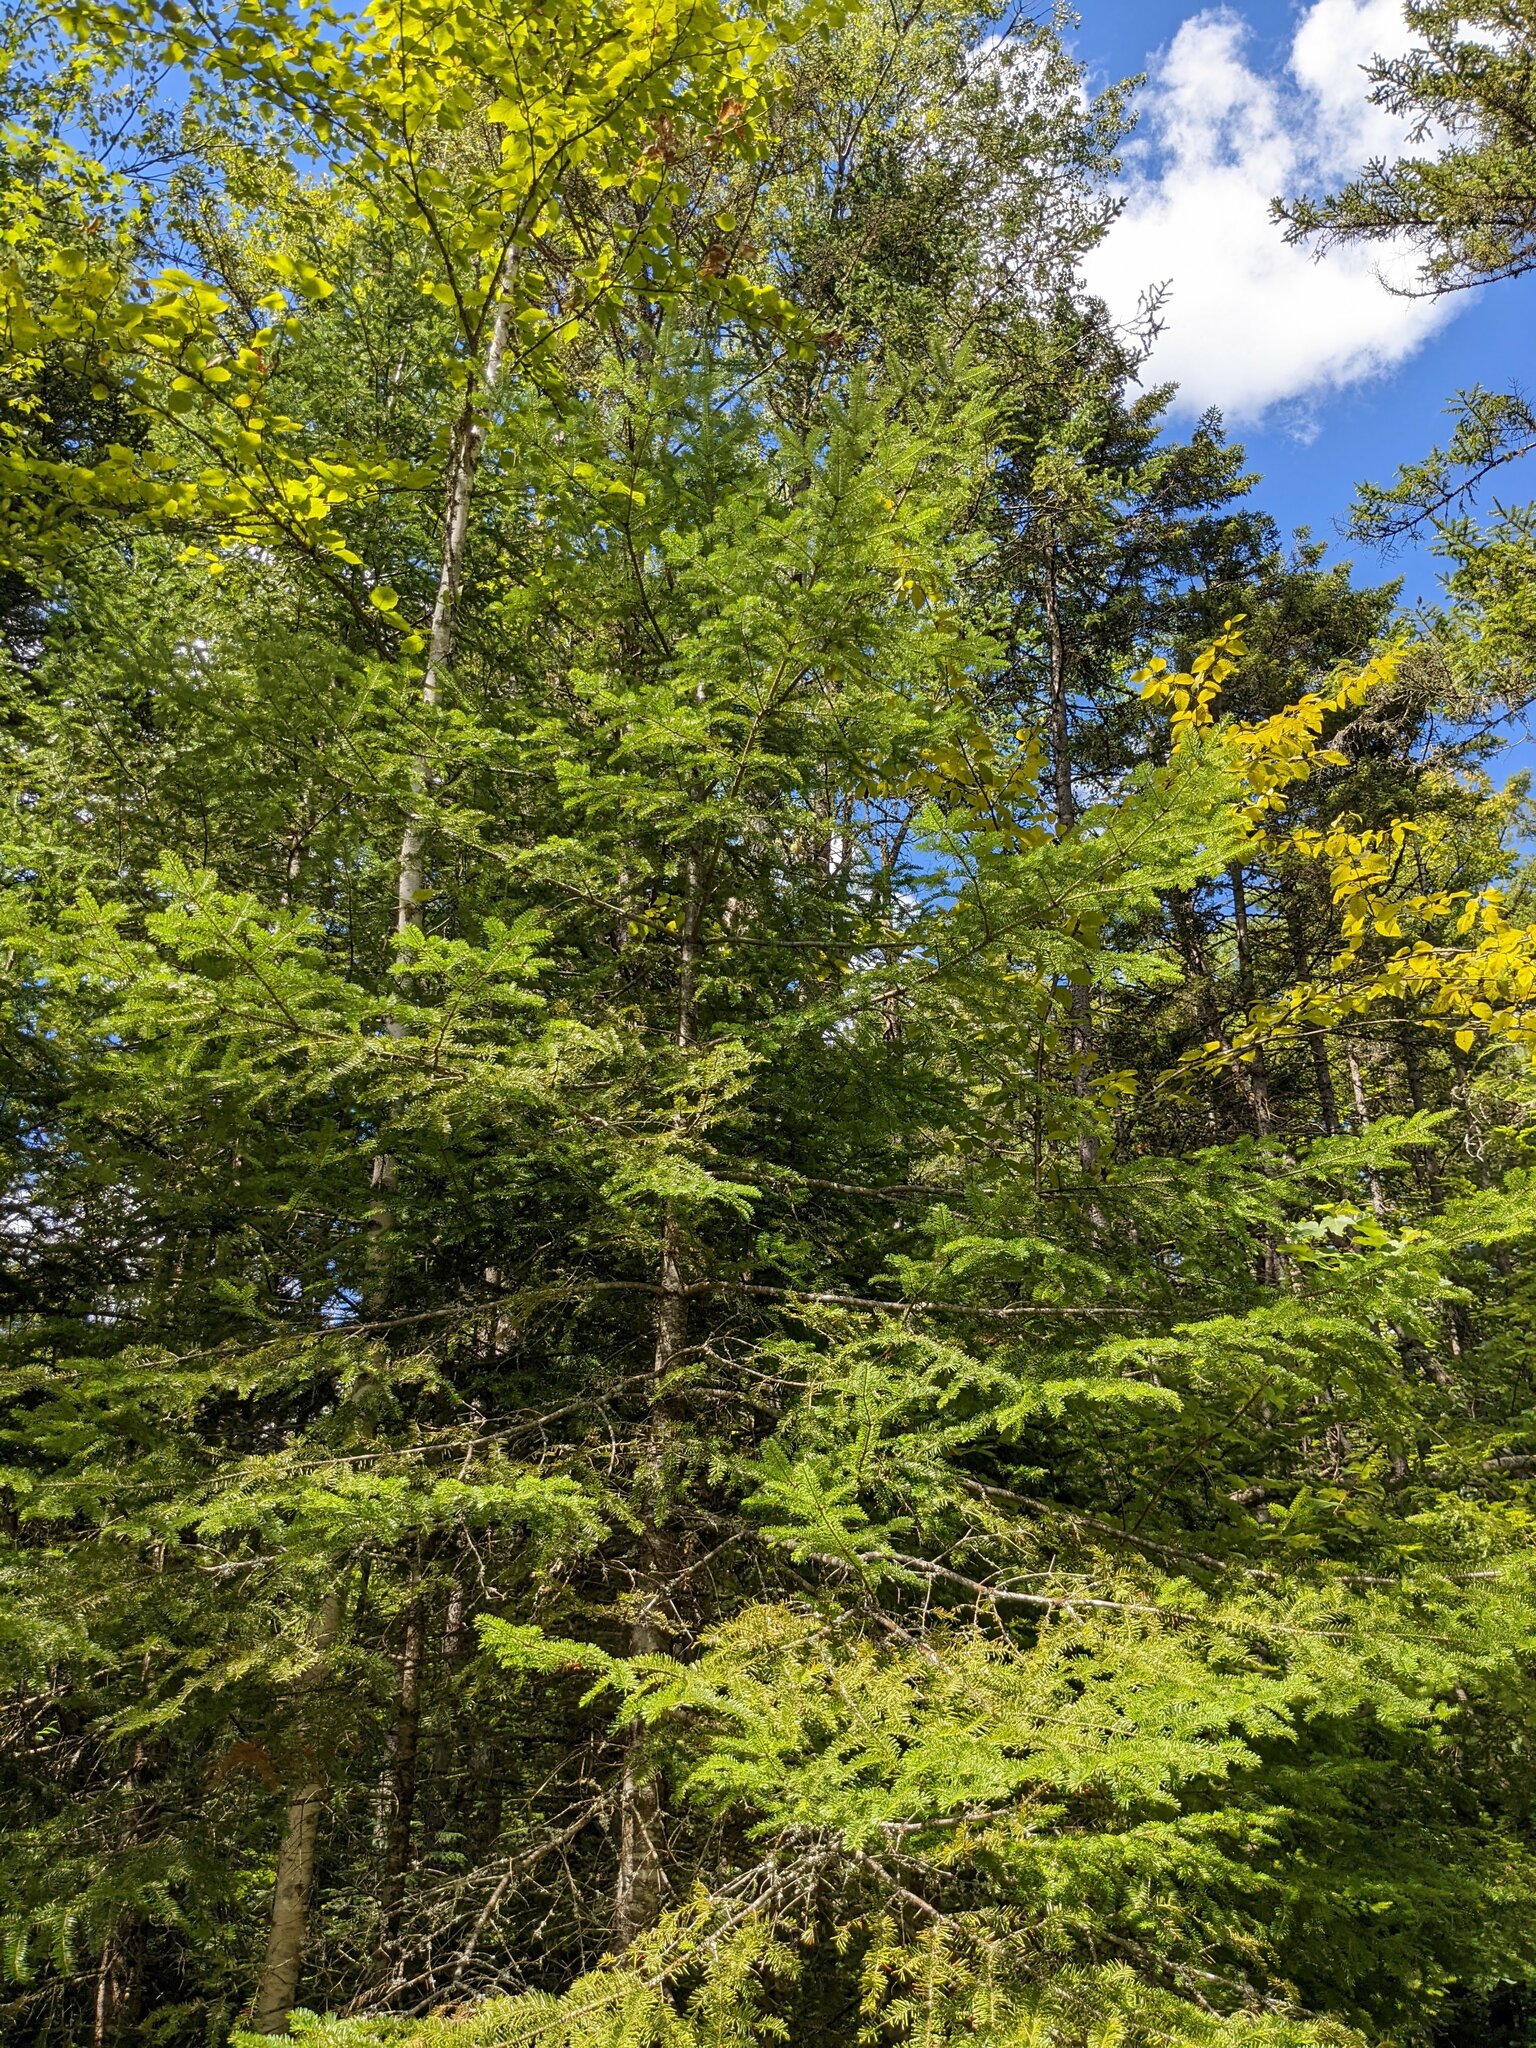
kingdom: Plantae
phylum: Tracheophyta
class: Pinopsida
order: Pinales
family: Pinaceae
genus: Abies
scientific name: Abies balsamea
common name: Balsam fir
